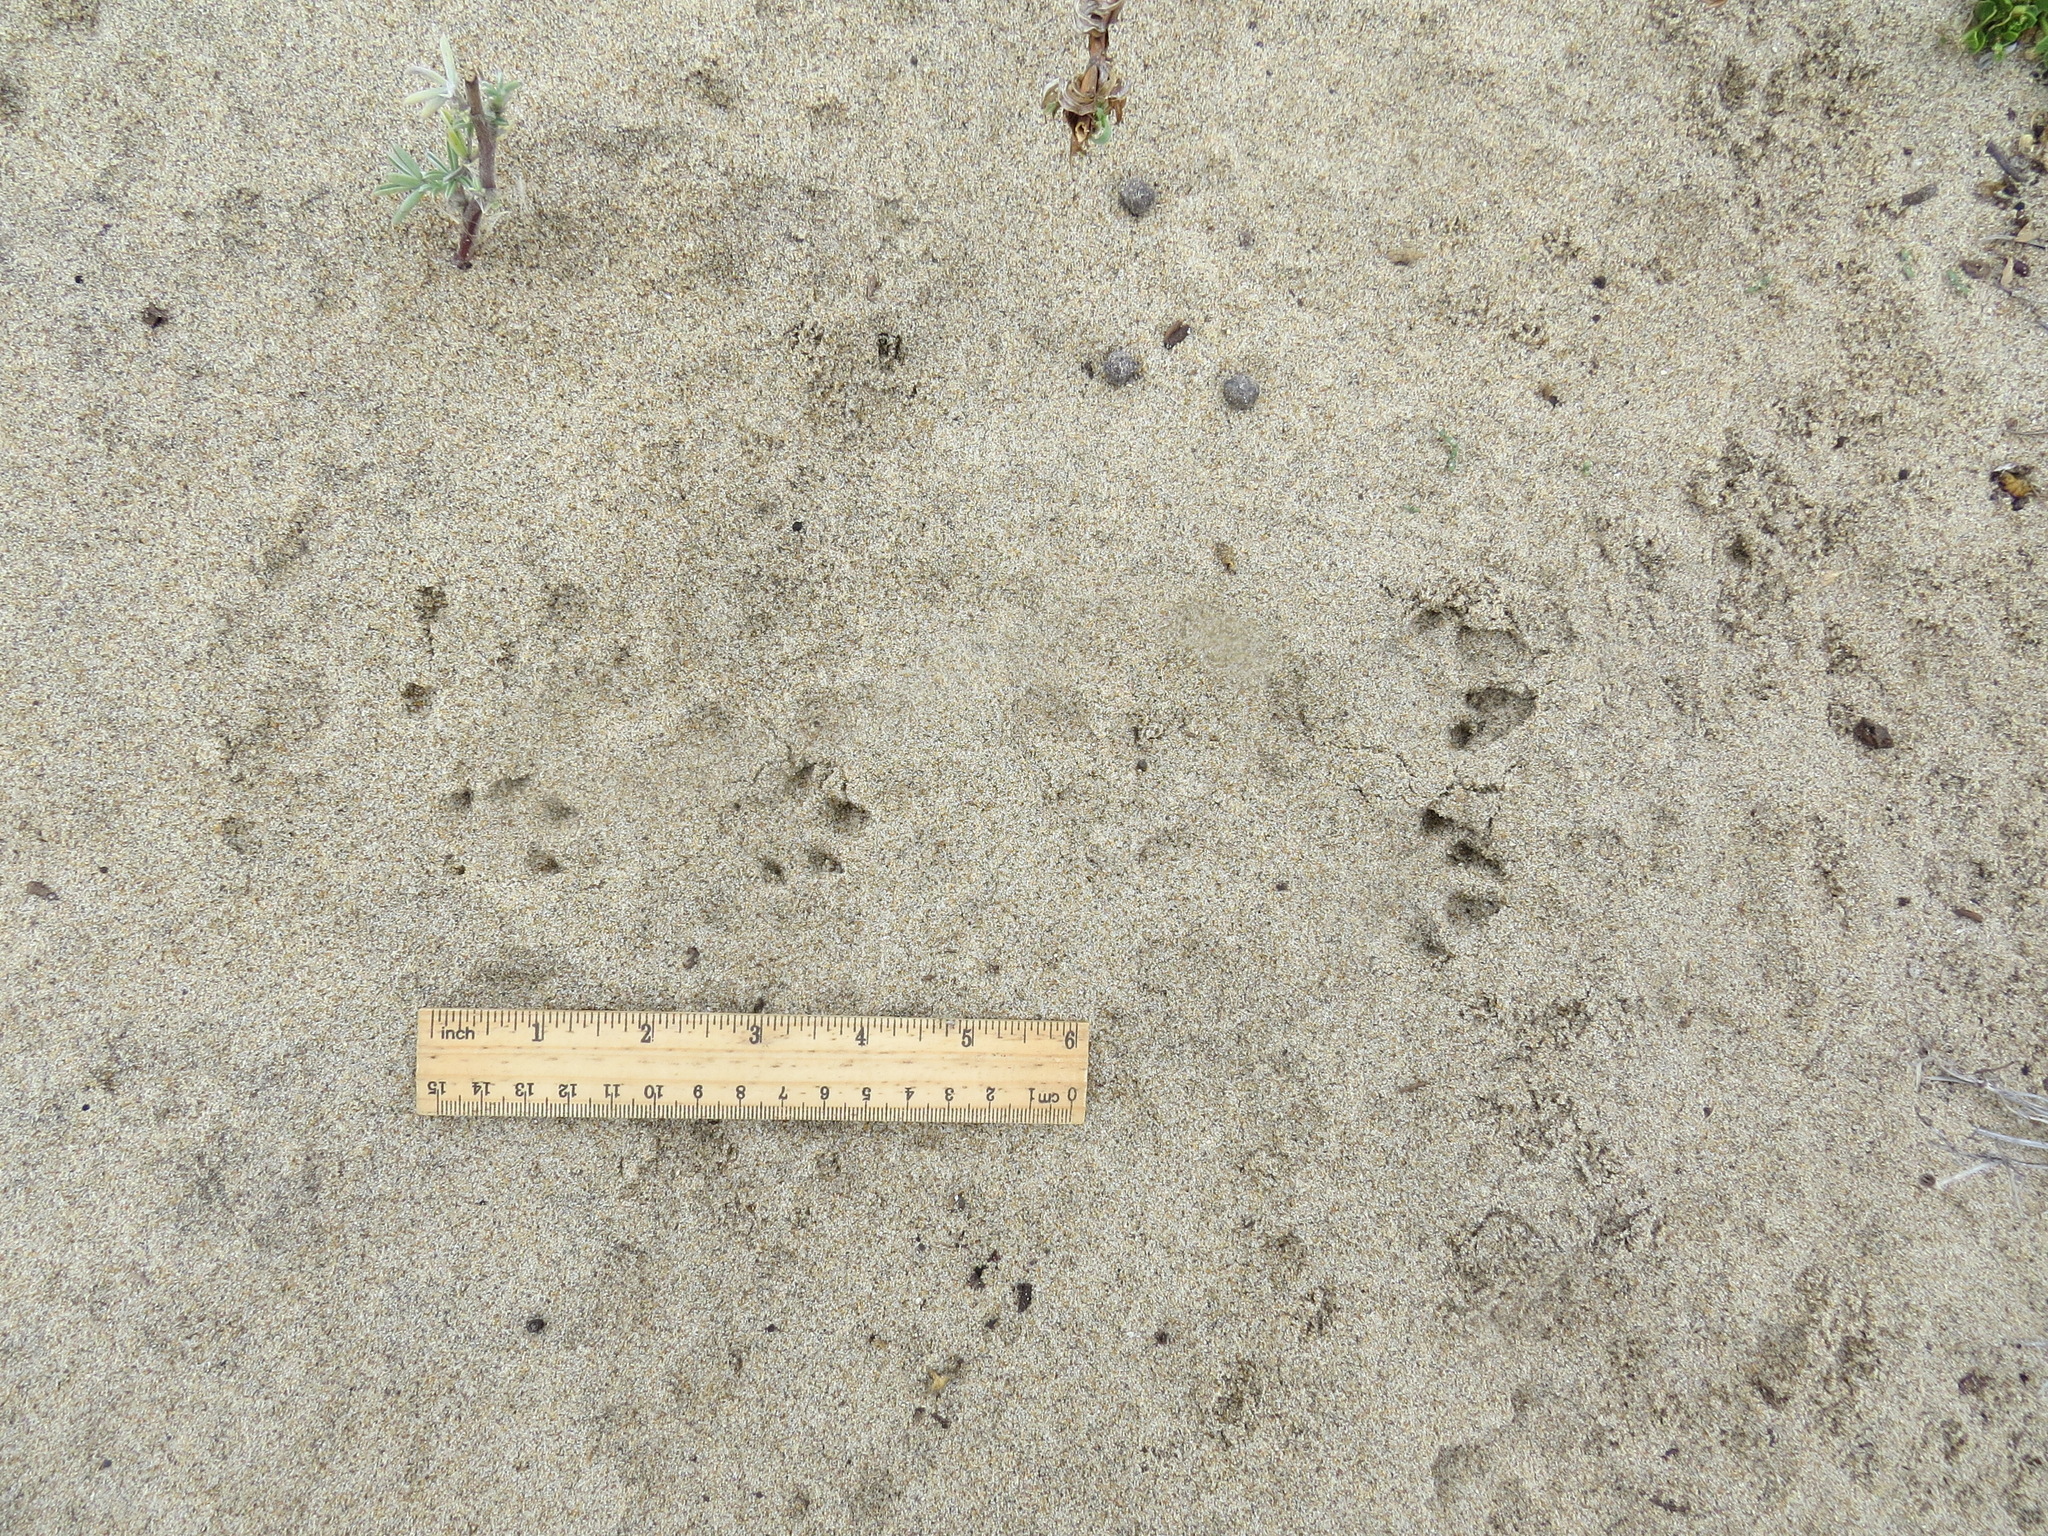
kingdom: Animalia
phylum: Chordata
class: Mammalia
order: Lagomorpha
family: Leporidae
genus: Sylvilagus
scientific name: Sylvilagus bachmani
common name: Brush rabbit
